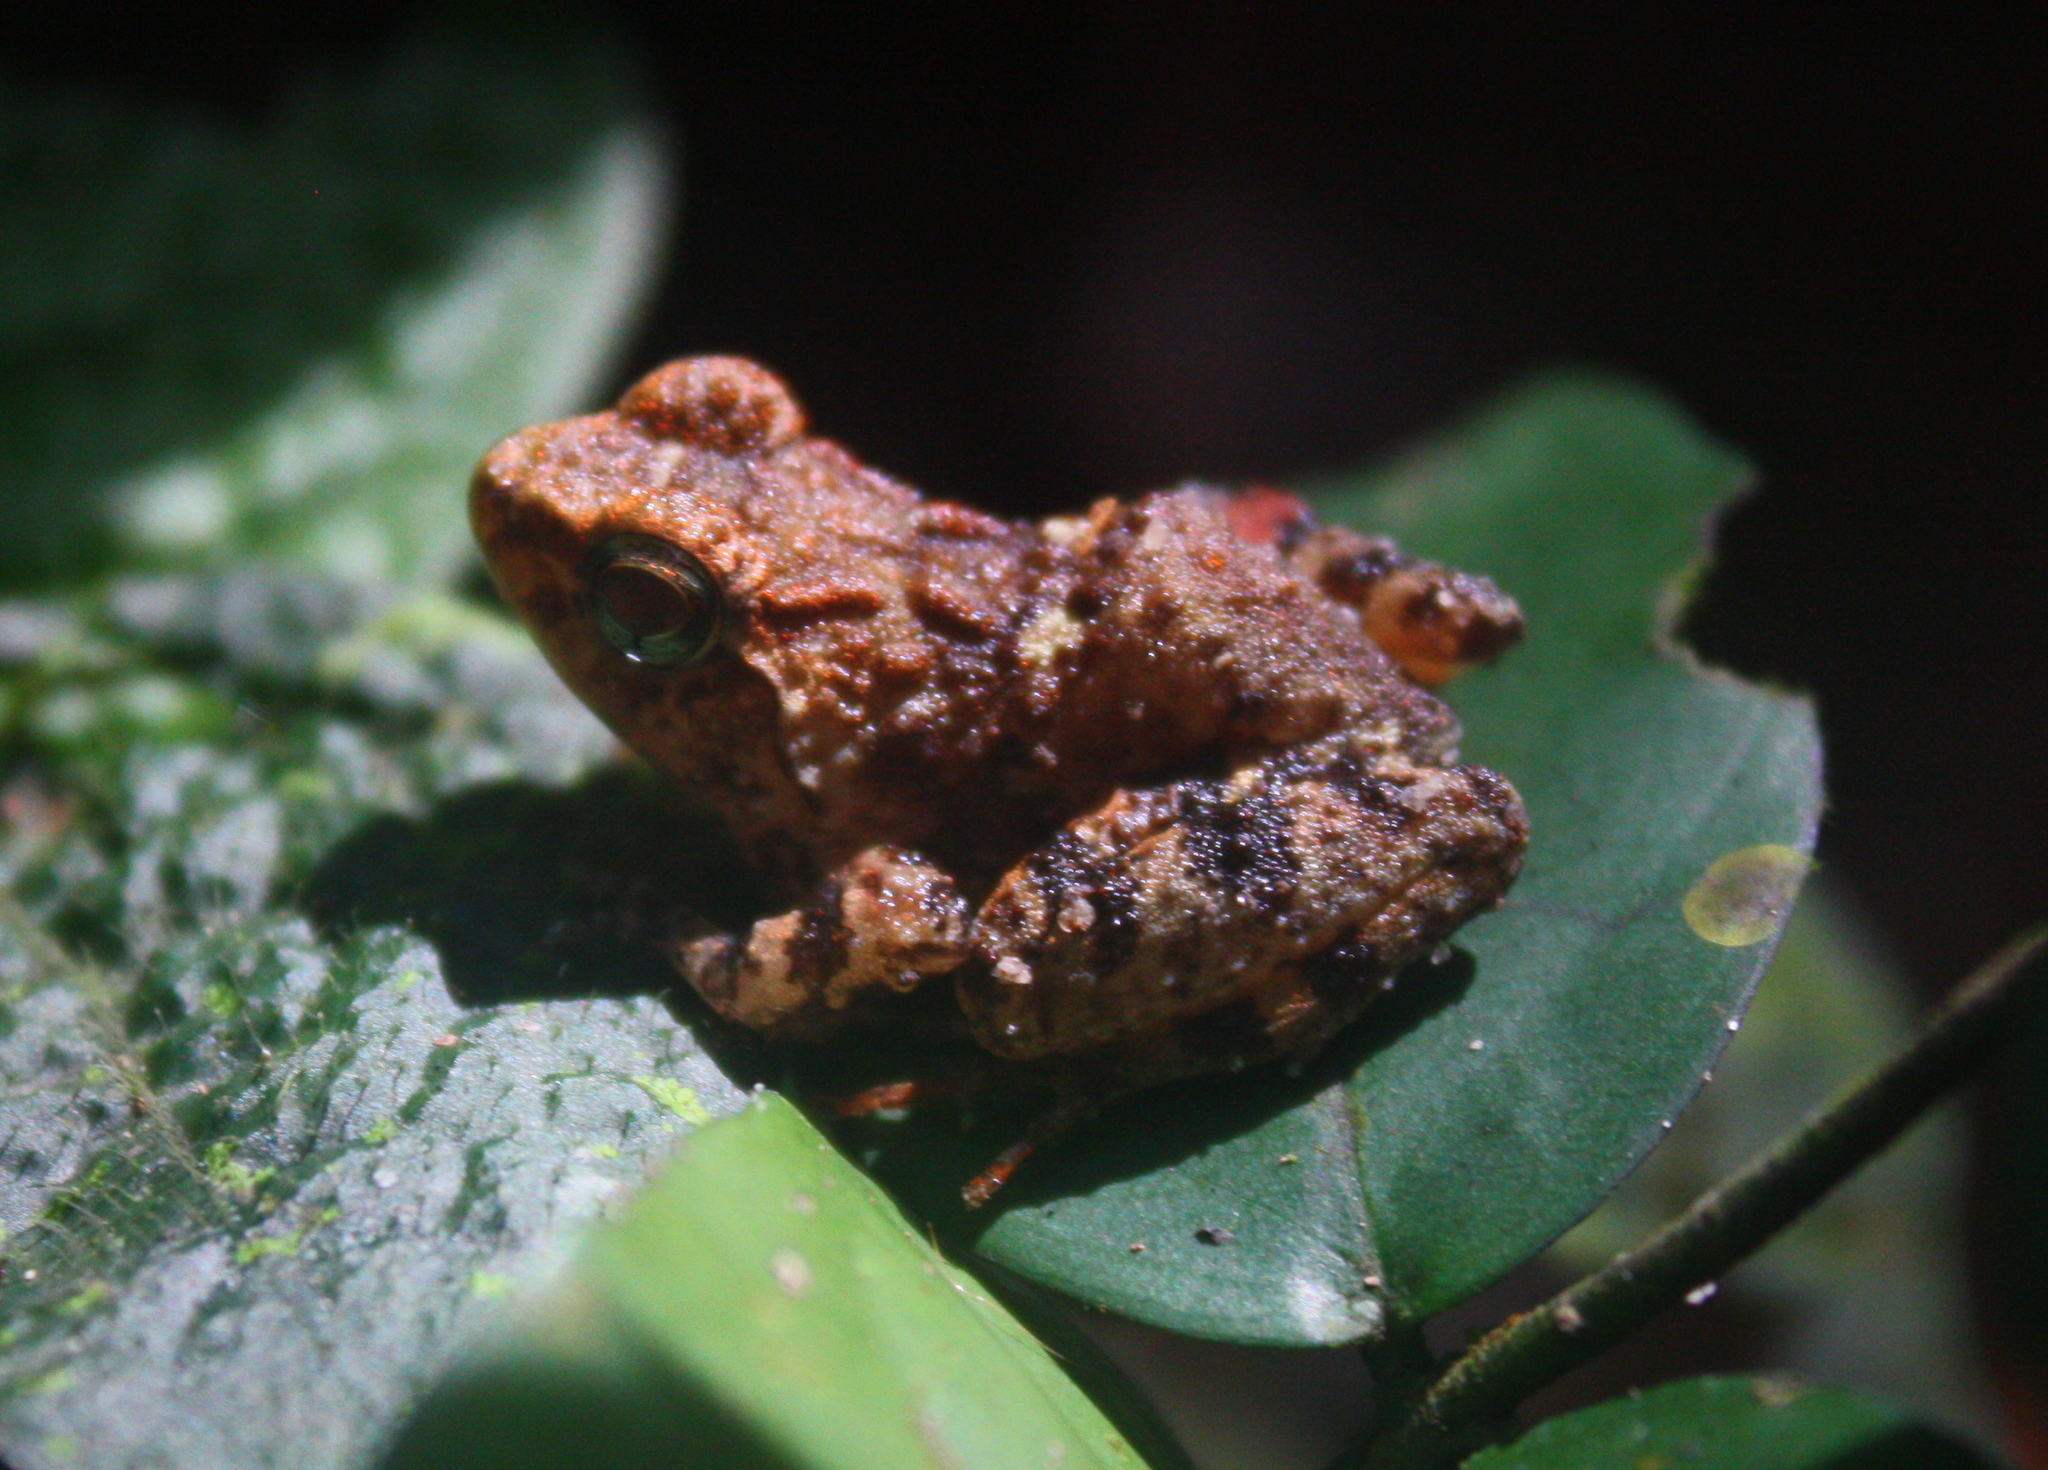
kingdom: Animalia
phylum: Chordata
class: Amphibia
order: Anura
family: Phrynobatrachidae
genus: Phrynobatrachus
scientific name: Phrynobatrachus liberiensis
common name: Liberia river frog
